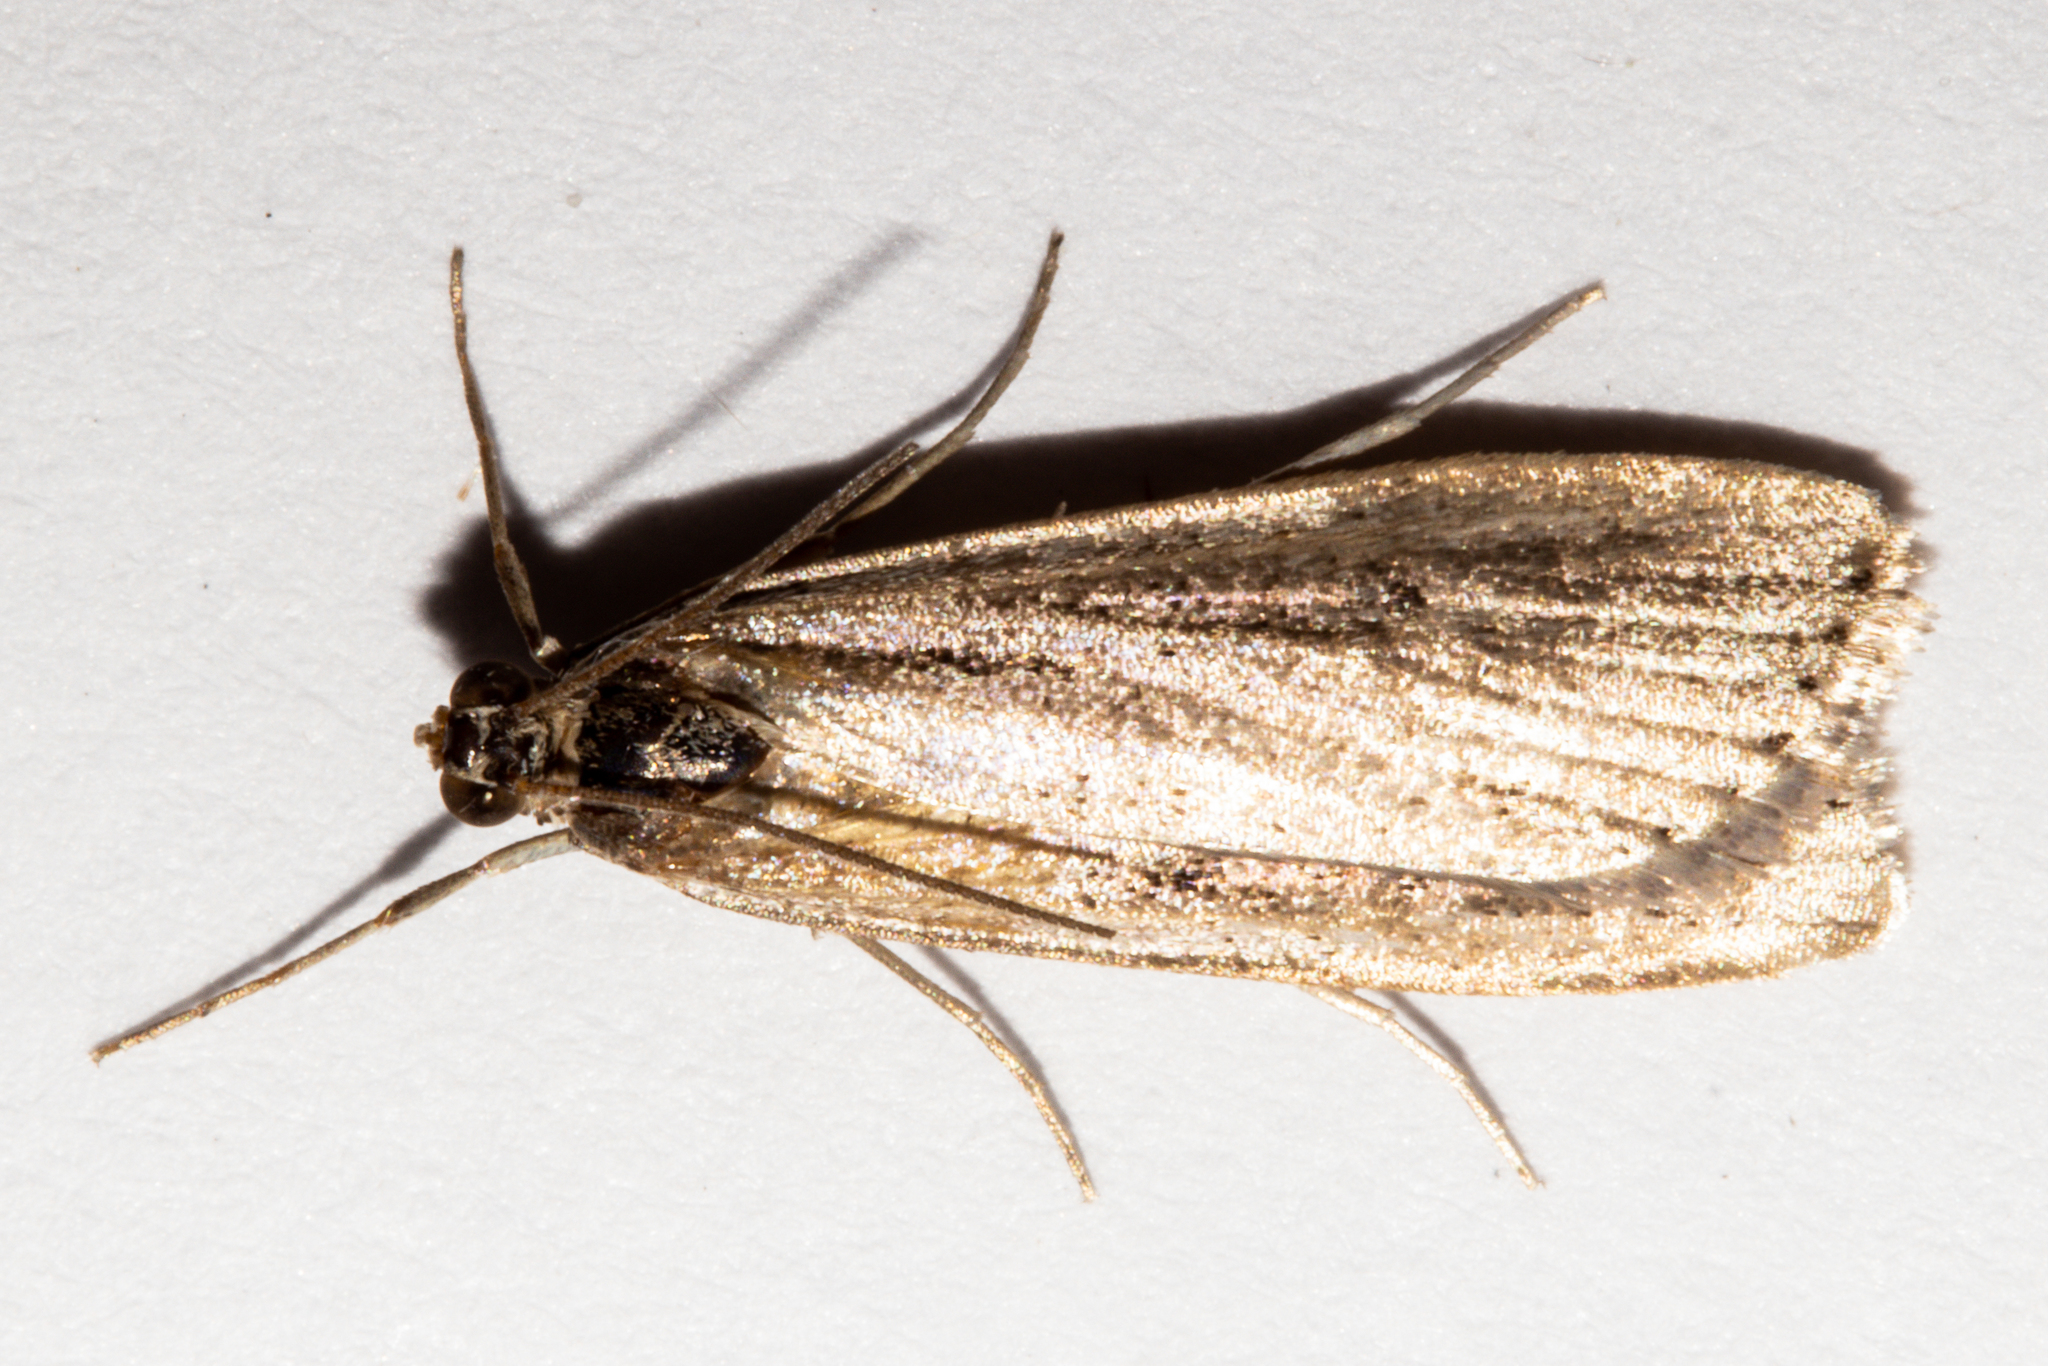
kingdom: Animalia
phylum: Arthropoda
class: Insecta
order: Lepidoptera
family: Crambidae
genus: Eudonia
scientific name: Eudonia sabulosella
